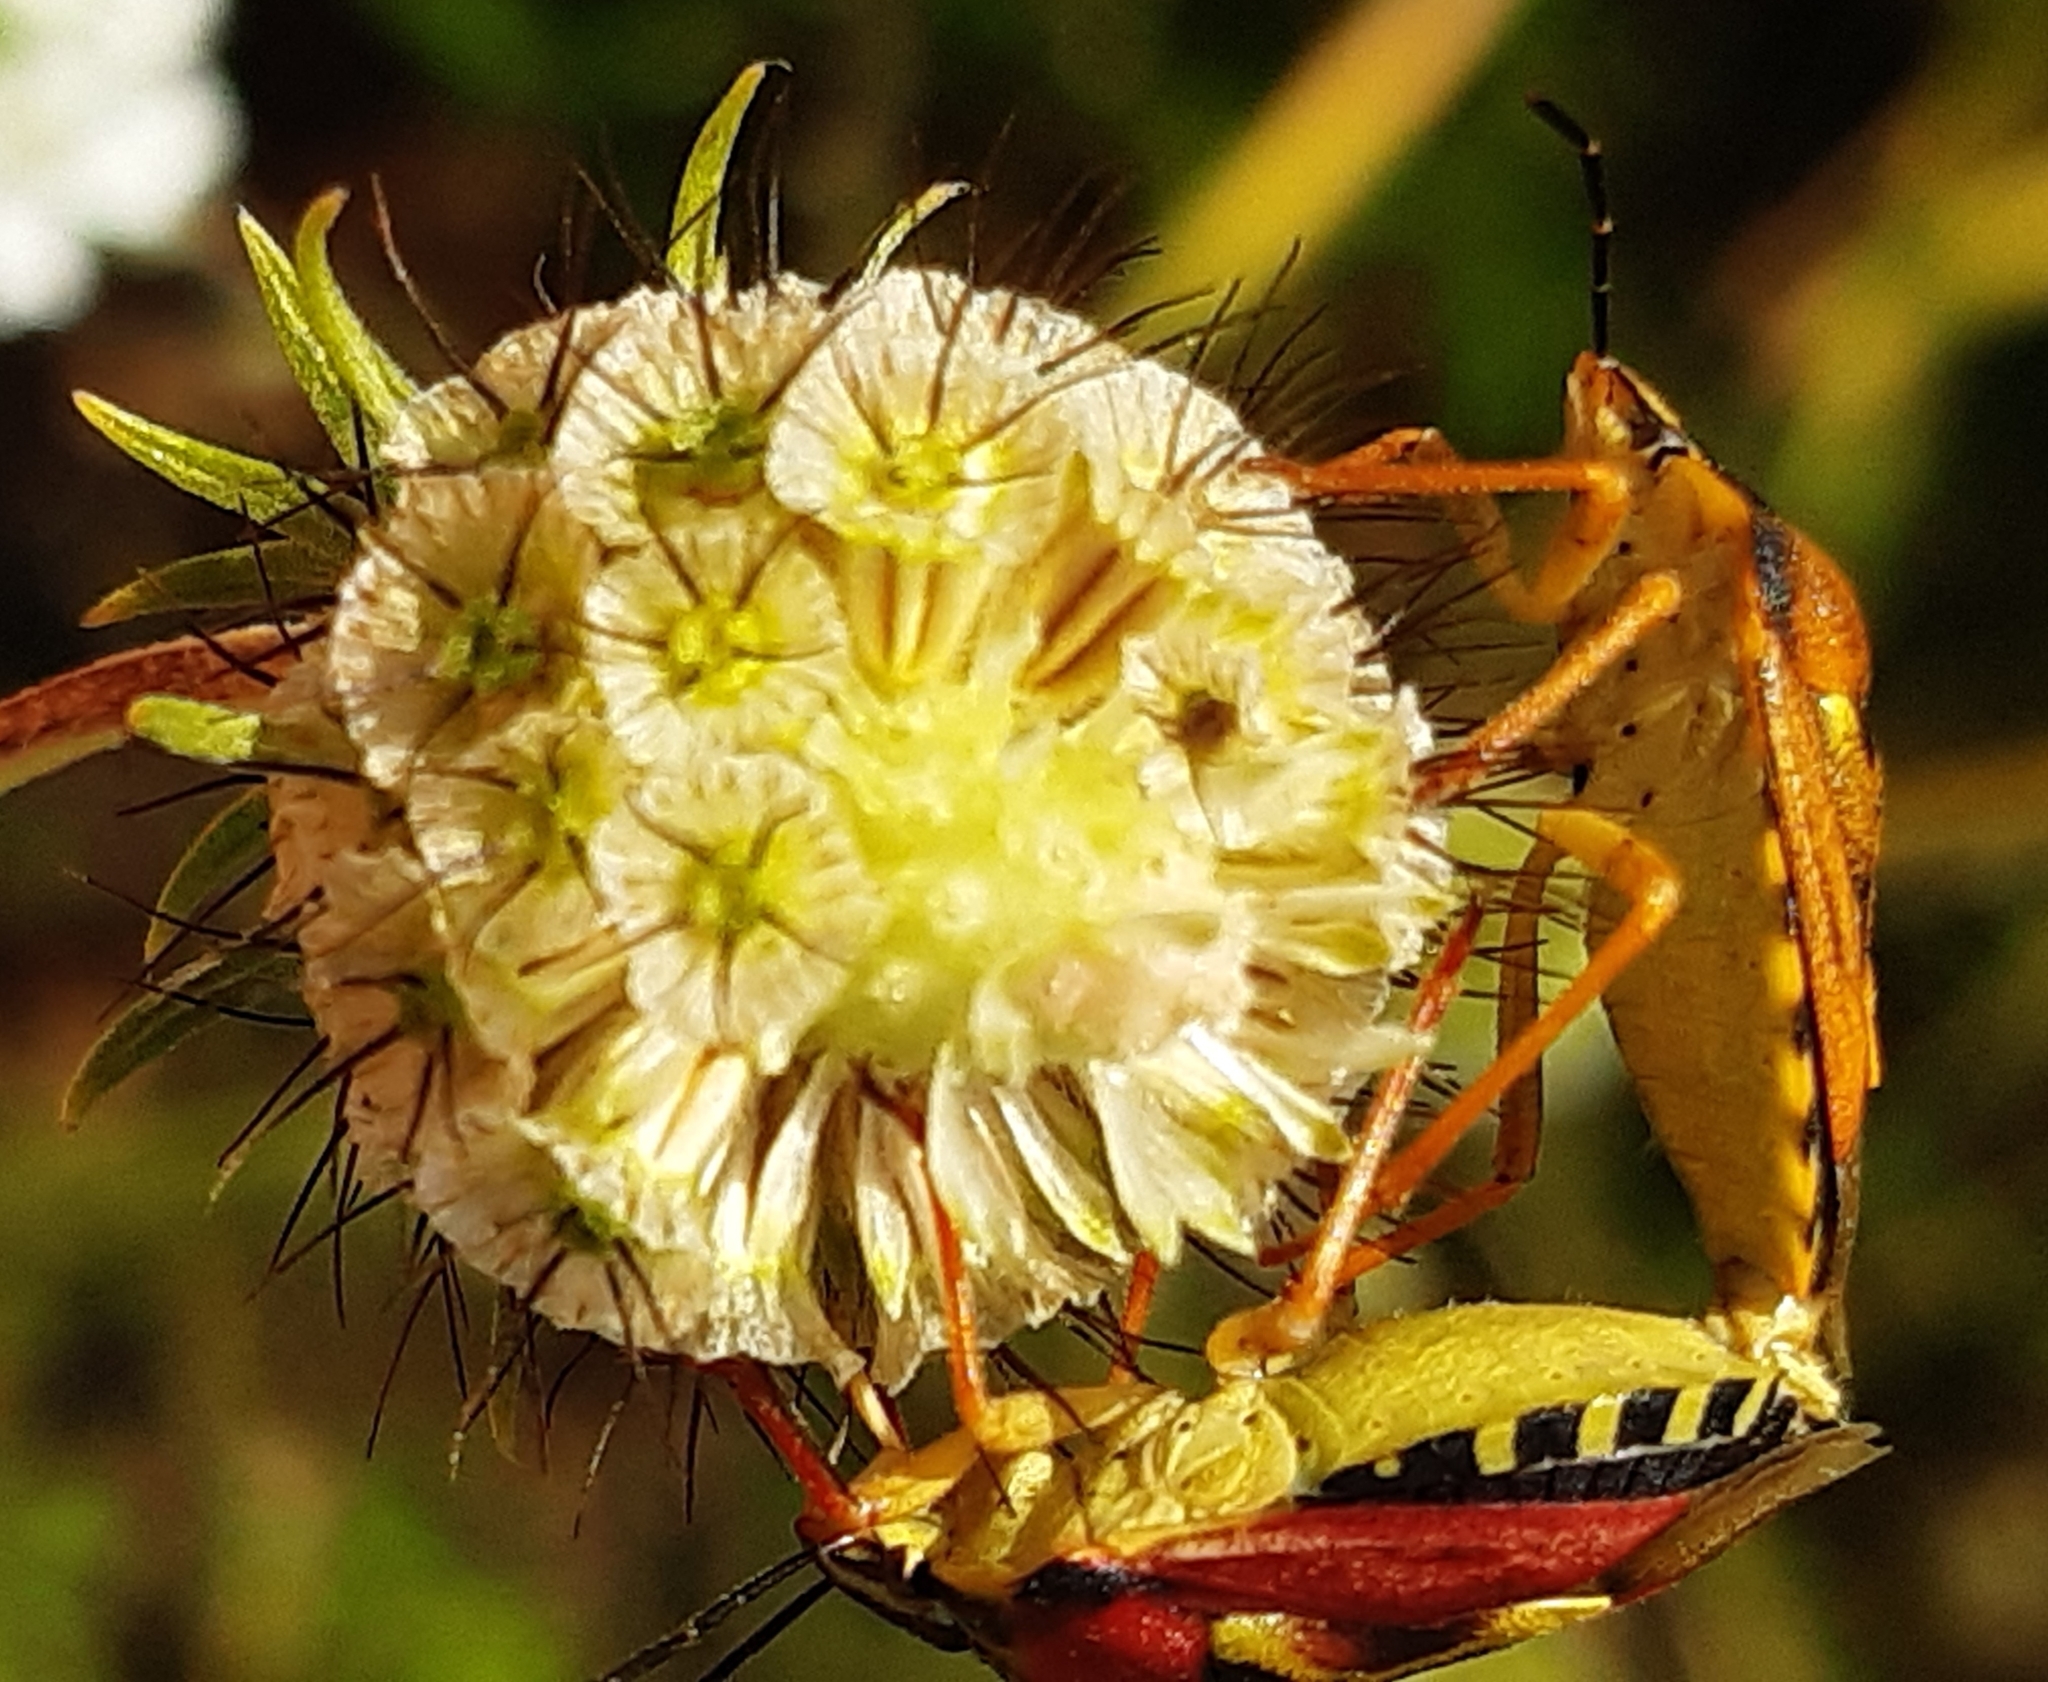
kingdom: Animalia
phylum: Arthropoda
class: Insecta
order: Hemiptera
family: Pentatomidae
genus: Carpocoris
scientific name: Carpocoris purpureipennis
